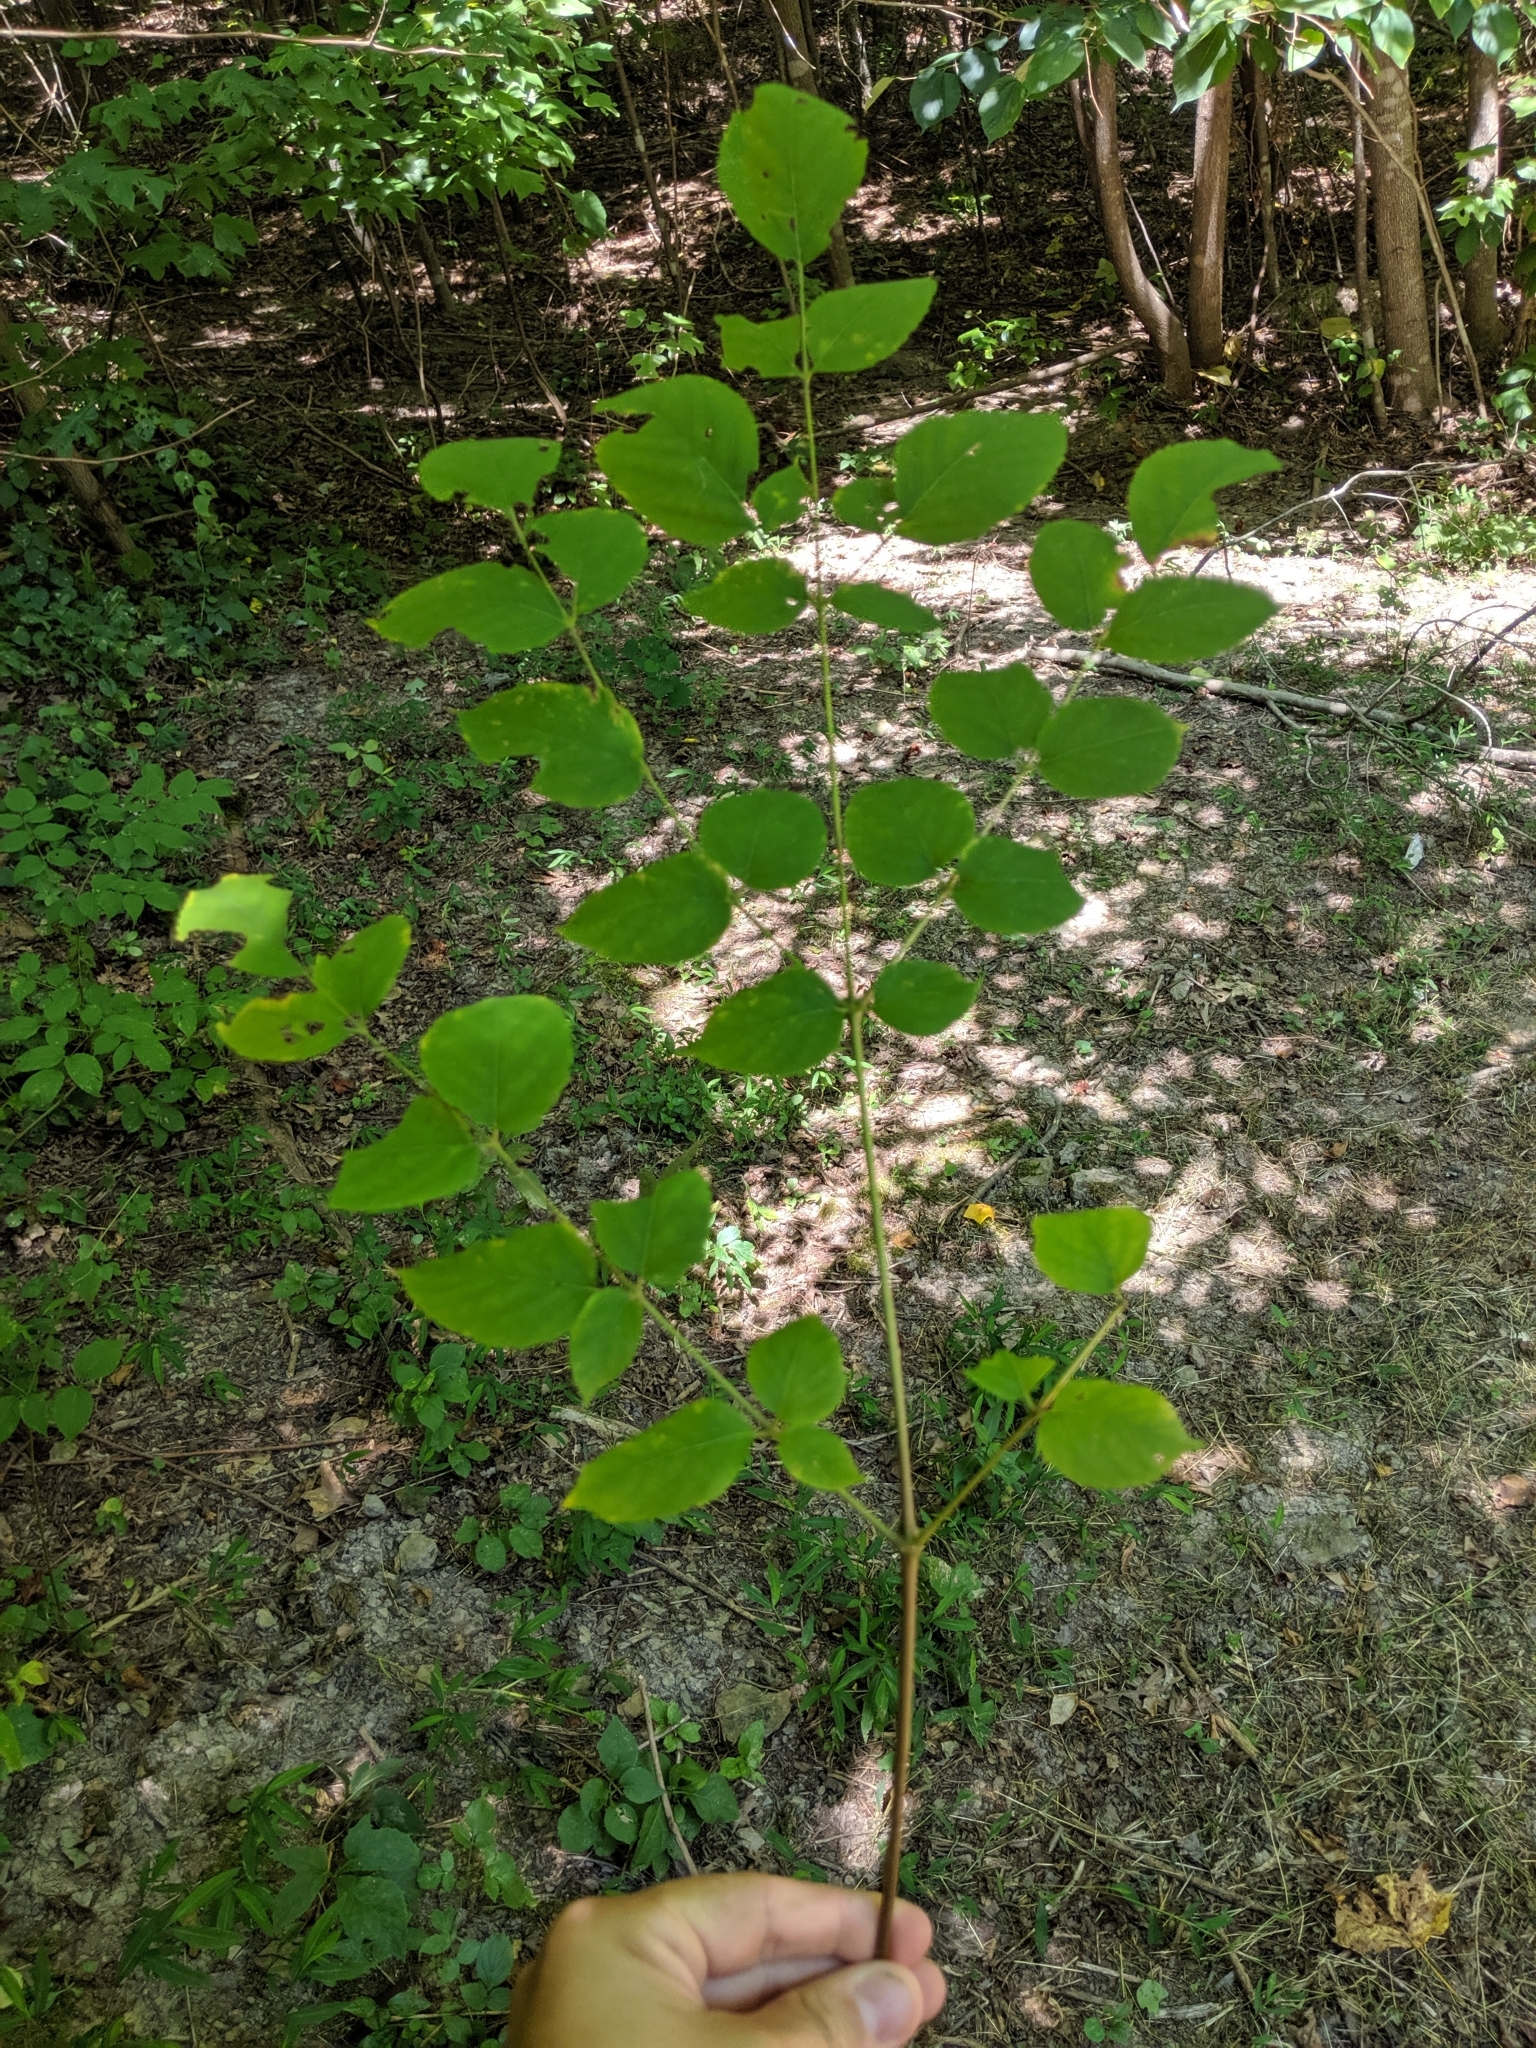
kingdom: Plantae
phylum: Tracheophyta
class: Magnoliopsida
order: Apiales
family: Araliaceae
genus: Aralia
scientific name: Aralia spinosa
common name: Hercules'-club
